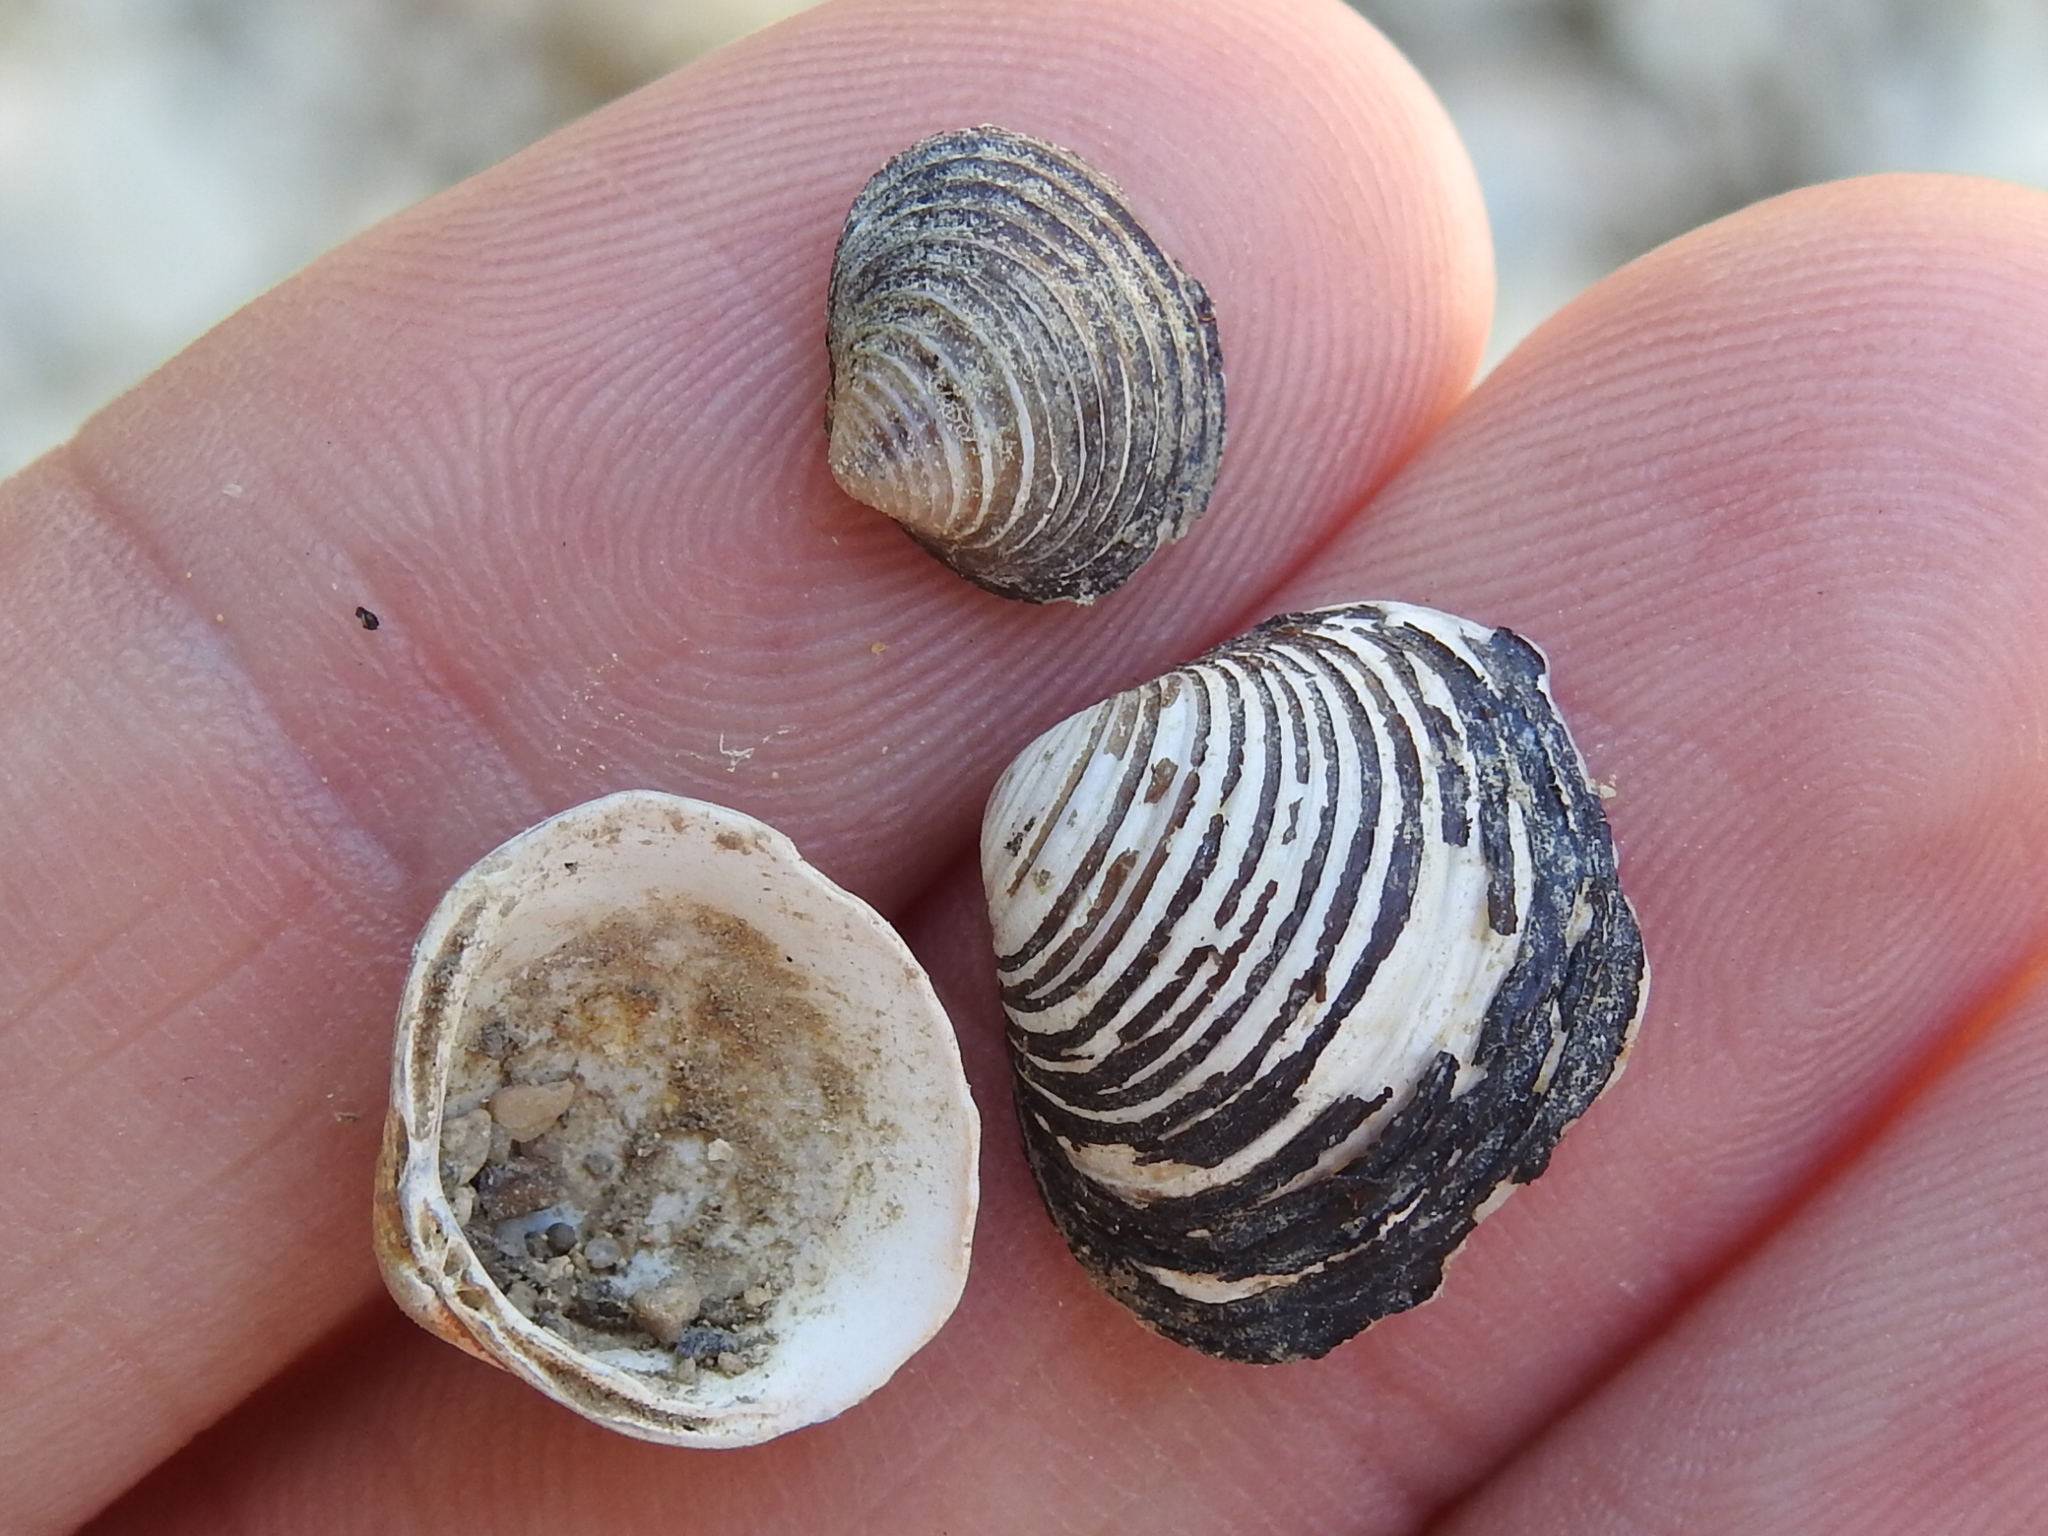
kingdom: Animalia
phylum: Mollusca
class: Bivalvia
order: Venerida
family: Cyrenidae
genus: Corbicula
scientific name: Corbicula fluminea
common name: Asian clam
